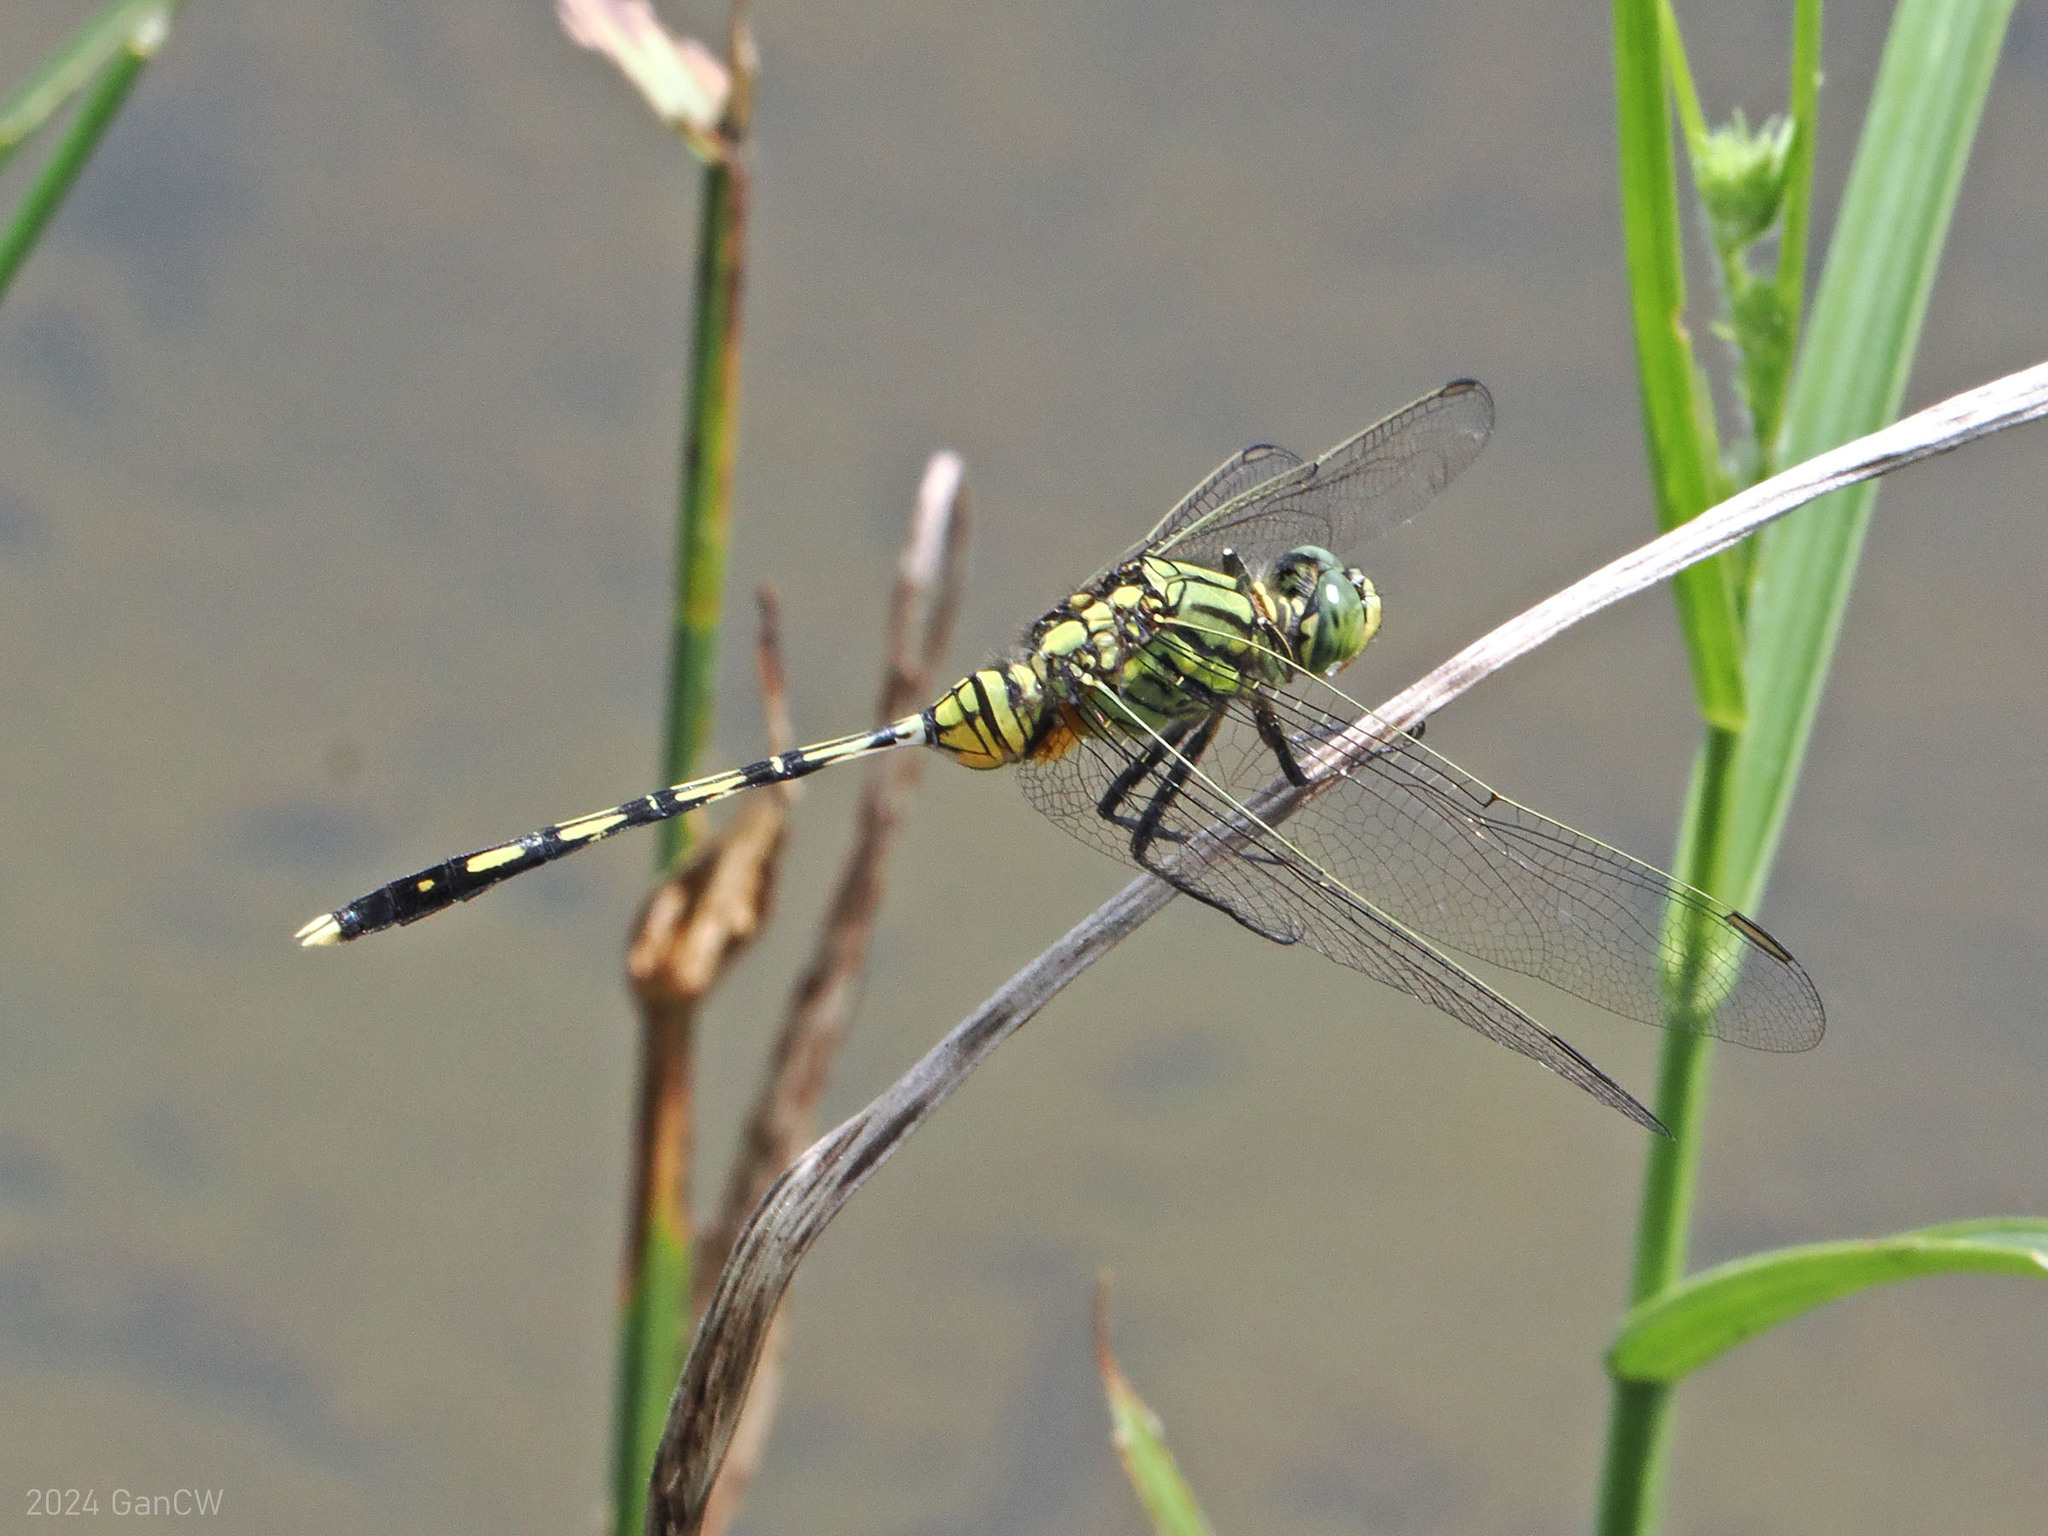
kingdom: Animalia
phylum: Arthropoda
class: Insecta
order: Odonata
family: Libellulidae
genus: Orthetrum
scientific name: Orthetrum serapia
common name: Green skimmer
